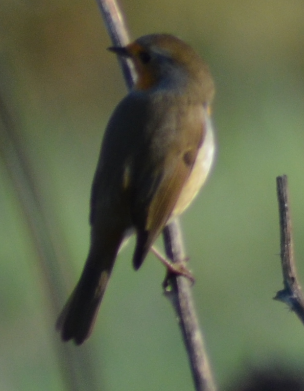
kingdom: Animalia
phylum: Chordata
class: Aves
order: Passeriformes
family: Muscicapidae
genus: Erithacus
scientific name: Erithacus rubecula
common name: European robin
